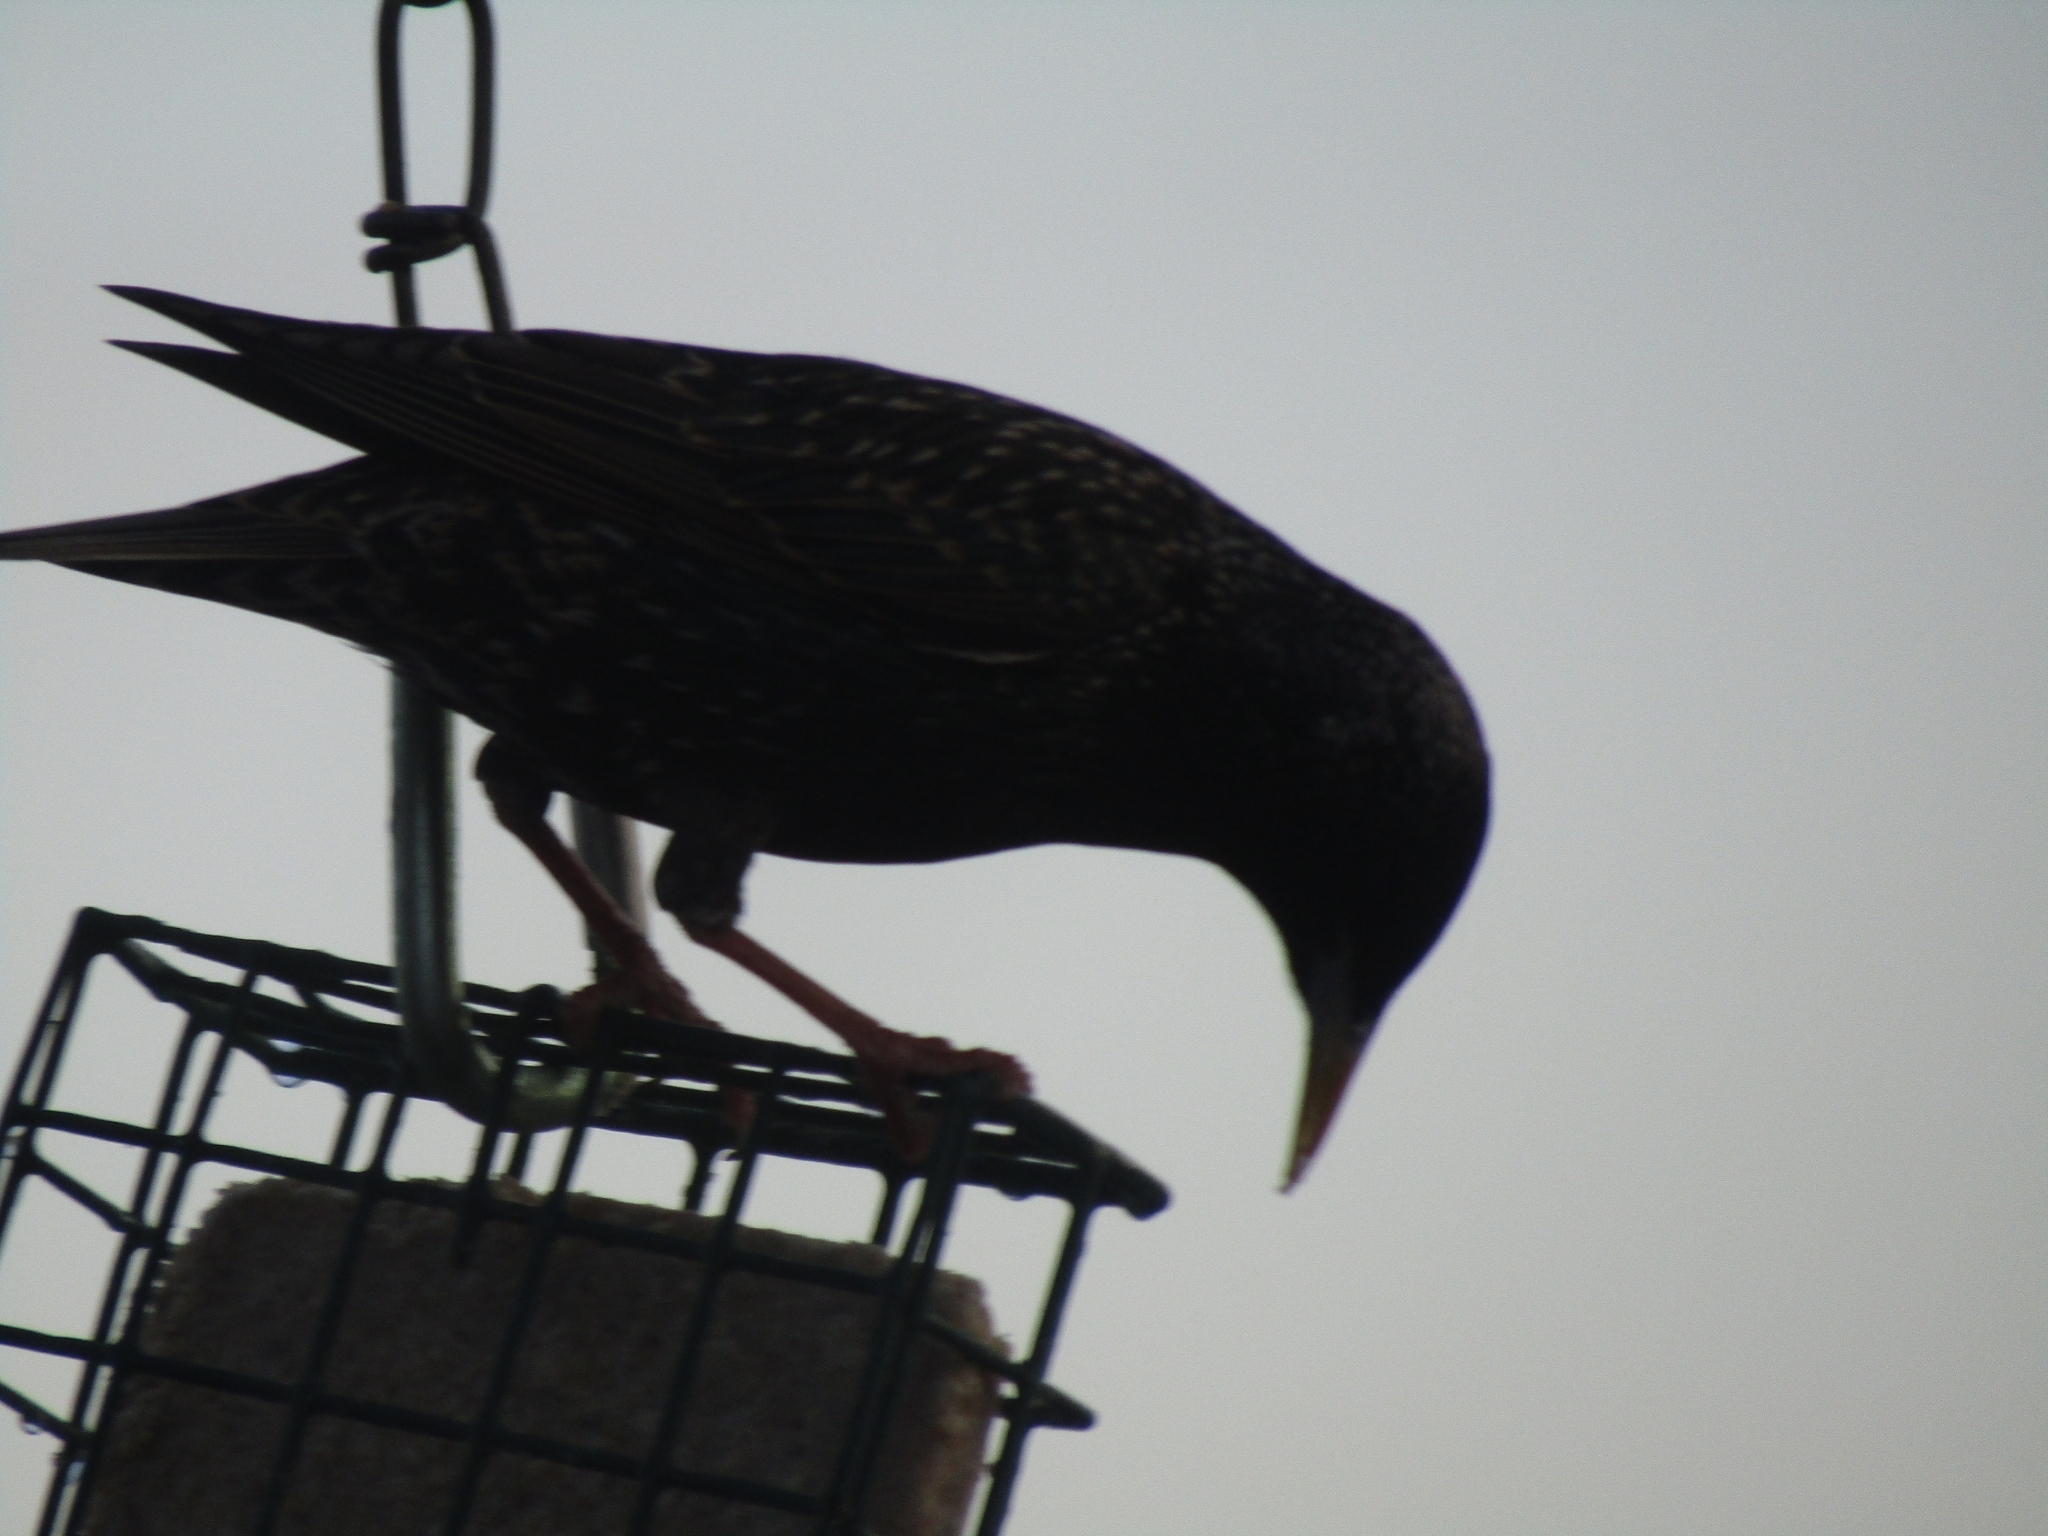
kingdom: Animalia
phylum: Chordata
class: Aves
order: Passeriformes
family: Sturnidae
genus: Sturnus
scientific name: Sturnus vulgaris
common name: Common starling
